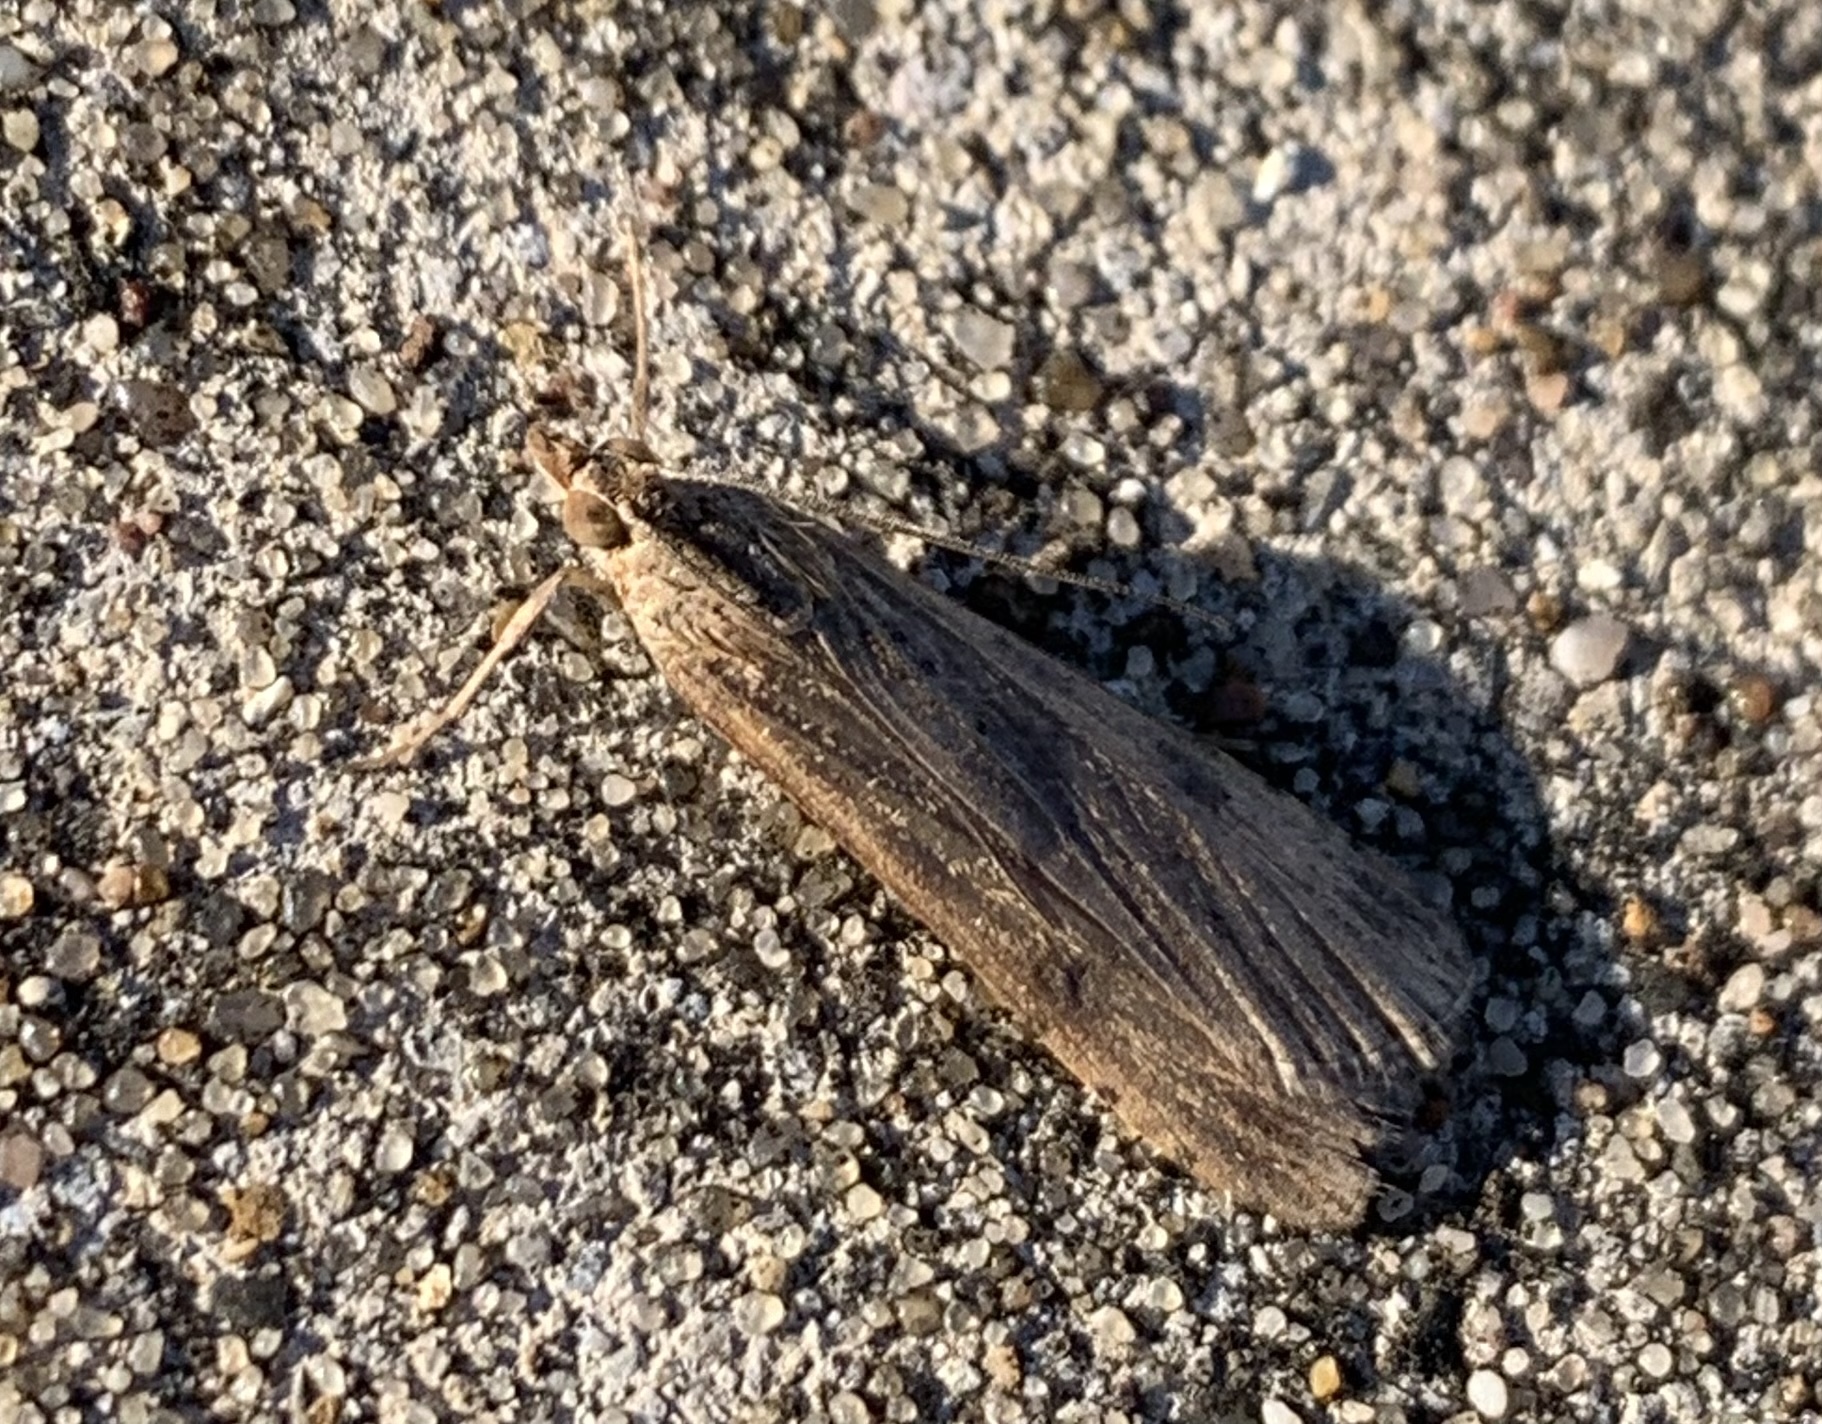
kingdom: Animalia
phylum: Arthropoda
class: Insecta
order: Lepidoptera
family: Crambidae
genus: Nomophila
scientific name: Nomophila nearctica
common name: American rush veneer
